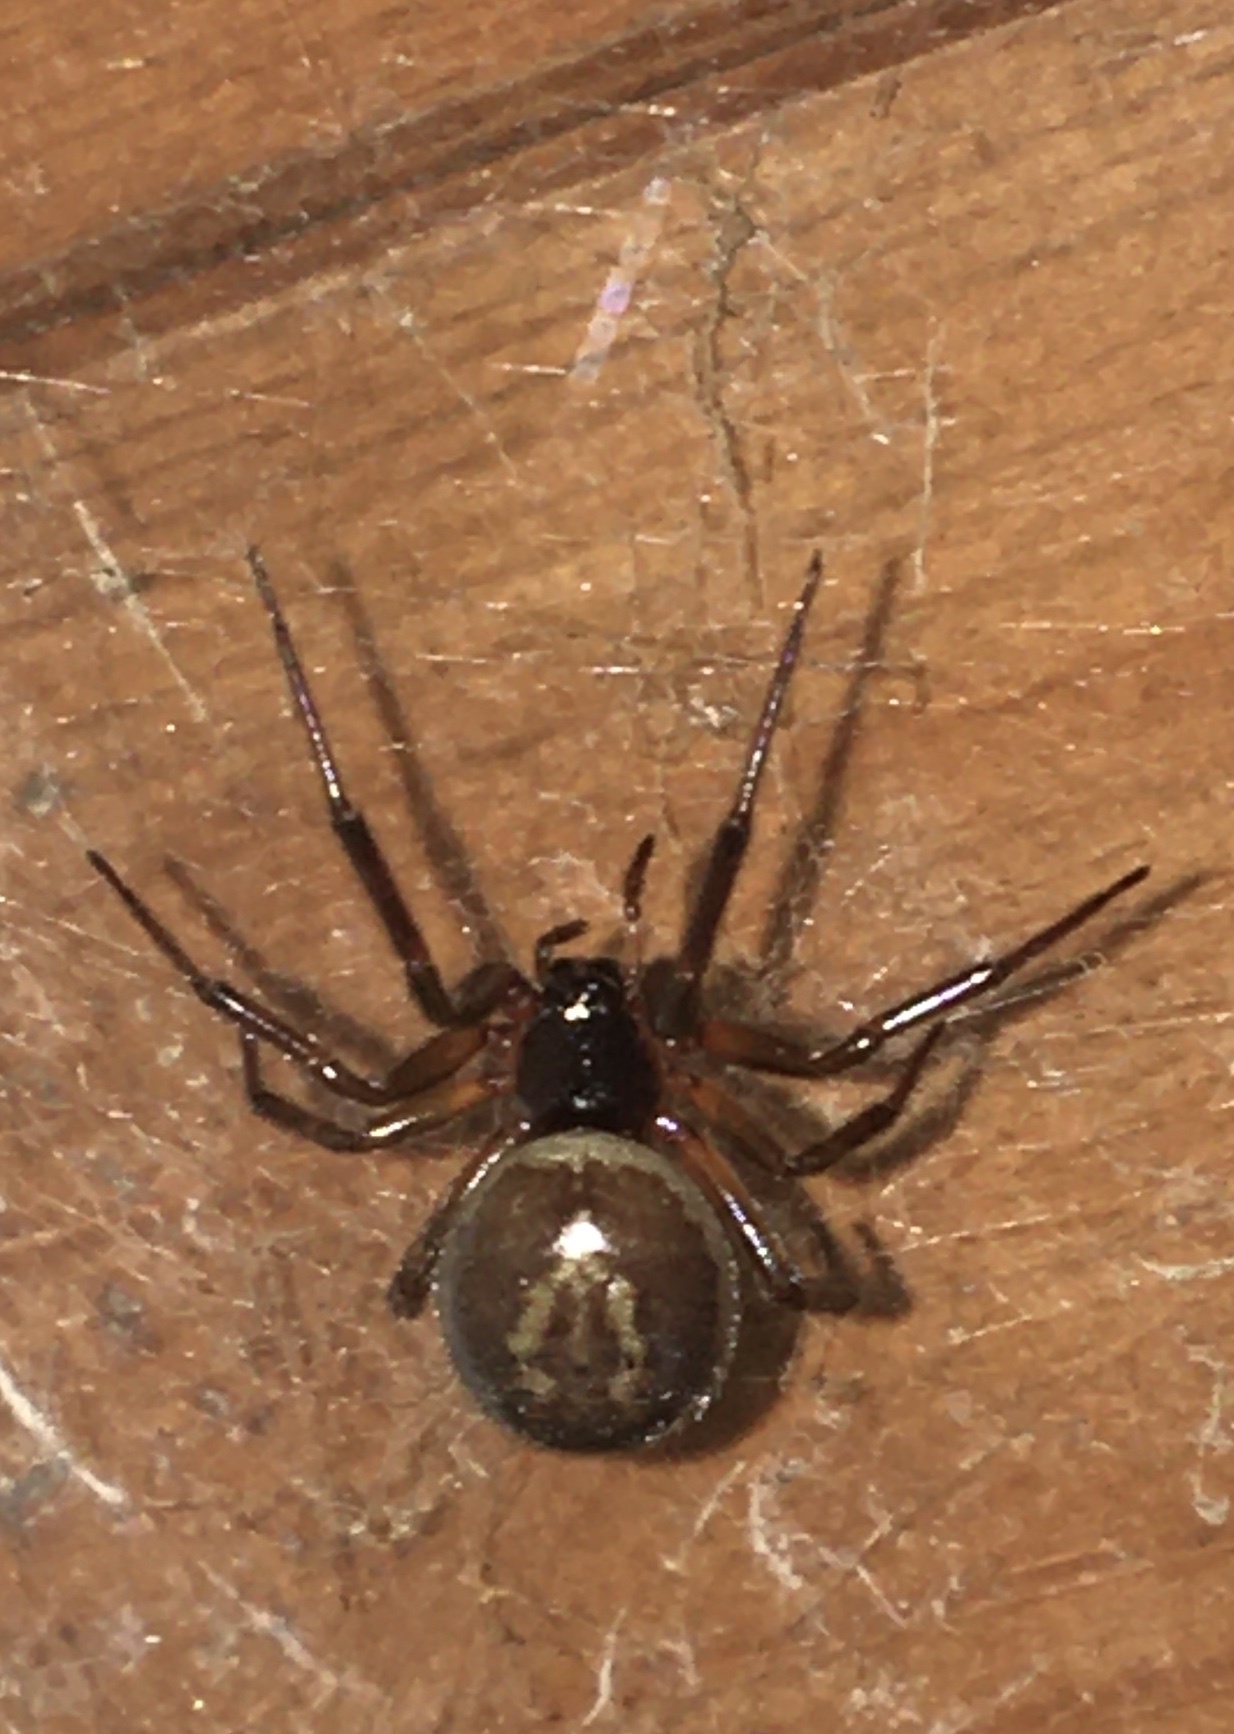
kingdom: Animalia
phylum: Arthropoda
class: Arachnida
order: Araneae
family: Theridiidae
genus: Steatoda
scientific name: Steatoda nobilis
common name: Cobweb weaver
